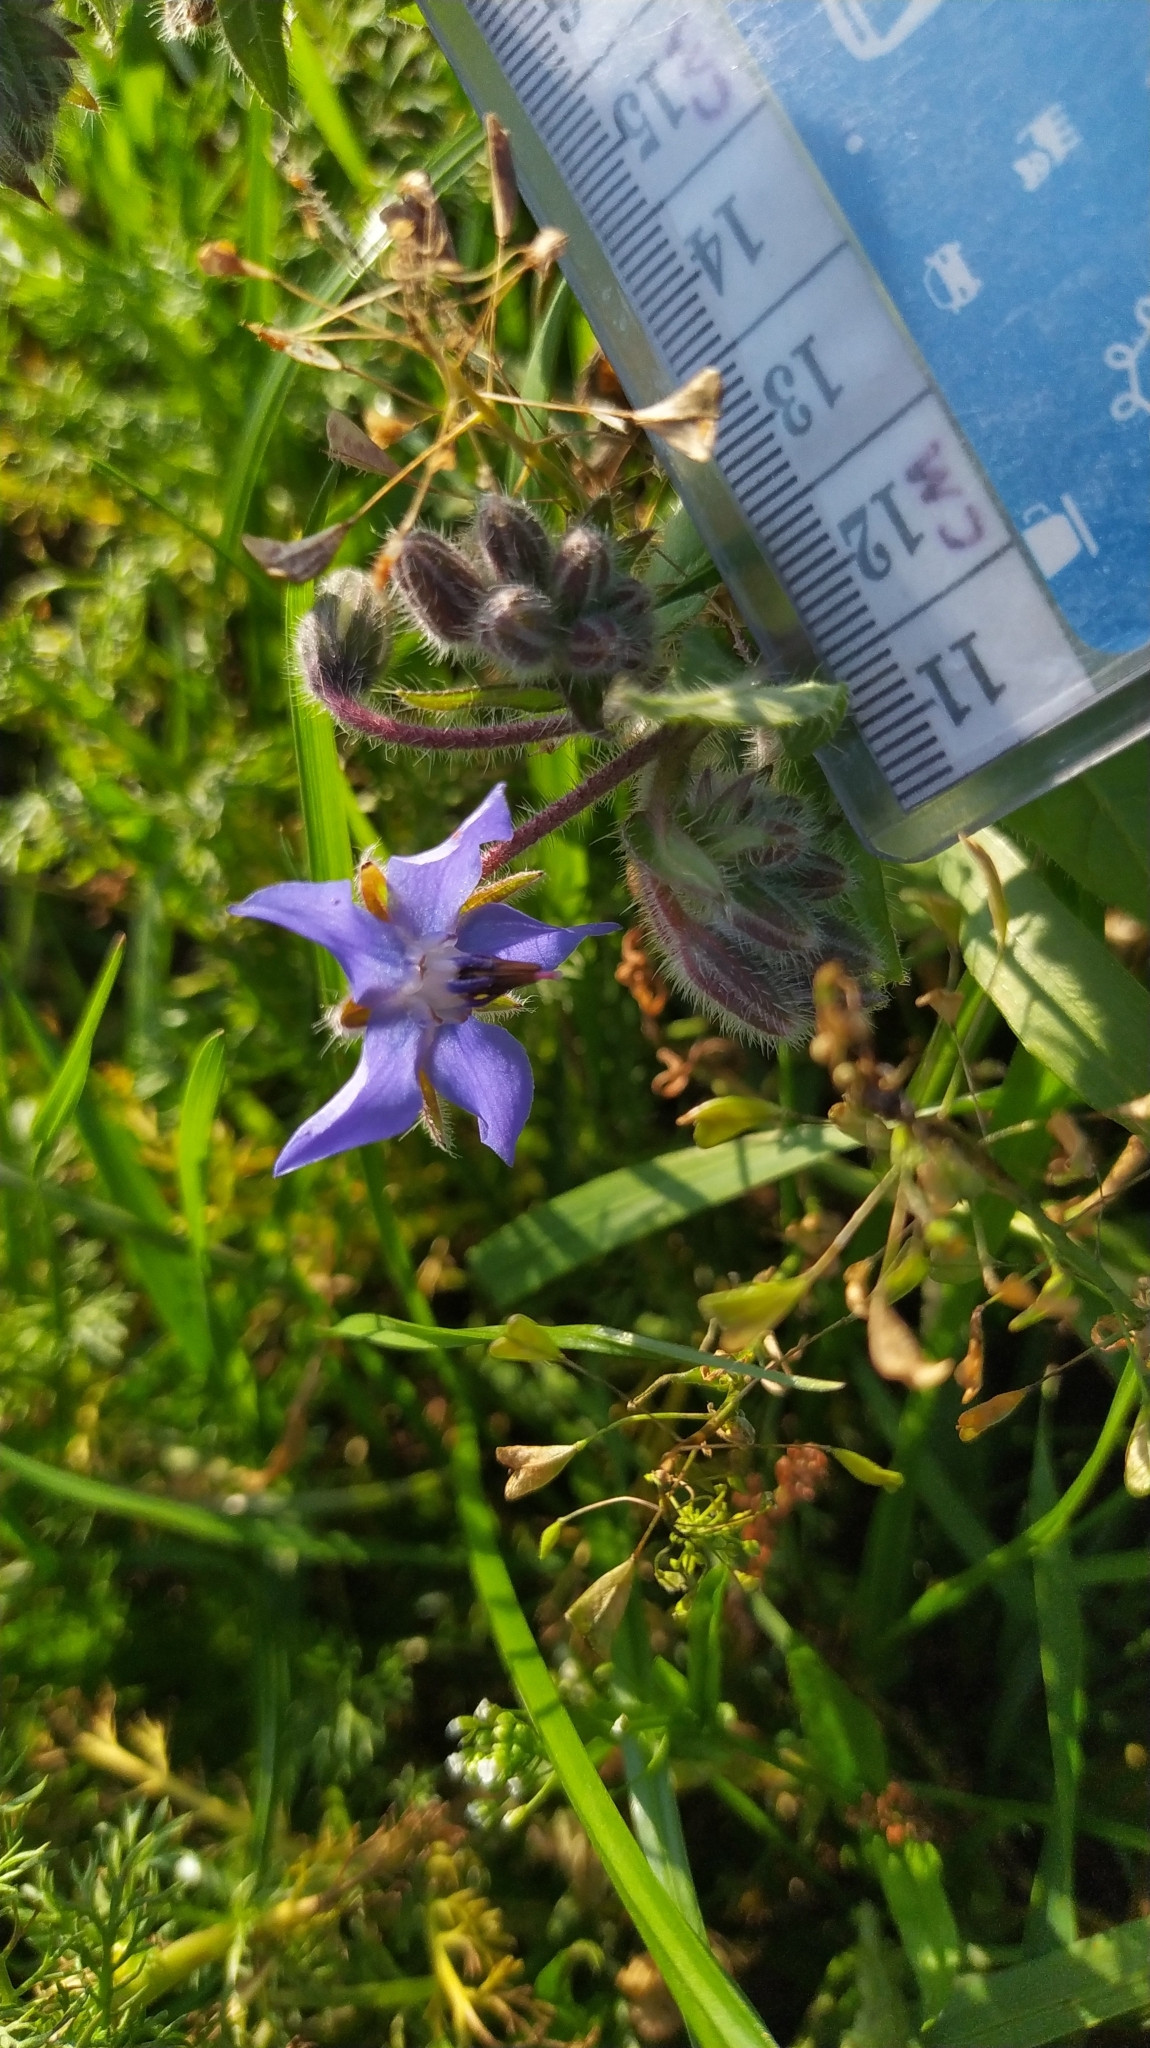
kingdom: Plantae
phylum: Tracheophyta
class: Magnoliopsida
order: Boraginales
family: Boraginaceae
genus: Borago
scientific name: Borago officinalis
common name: Borage
